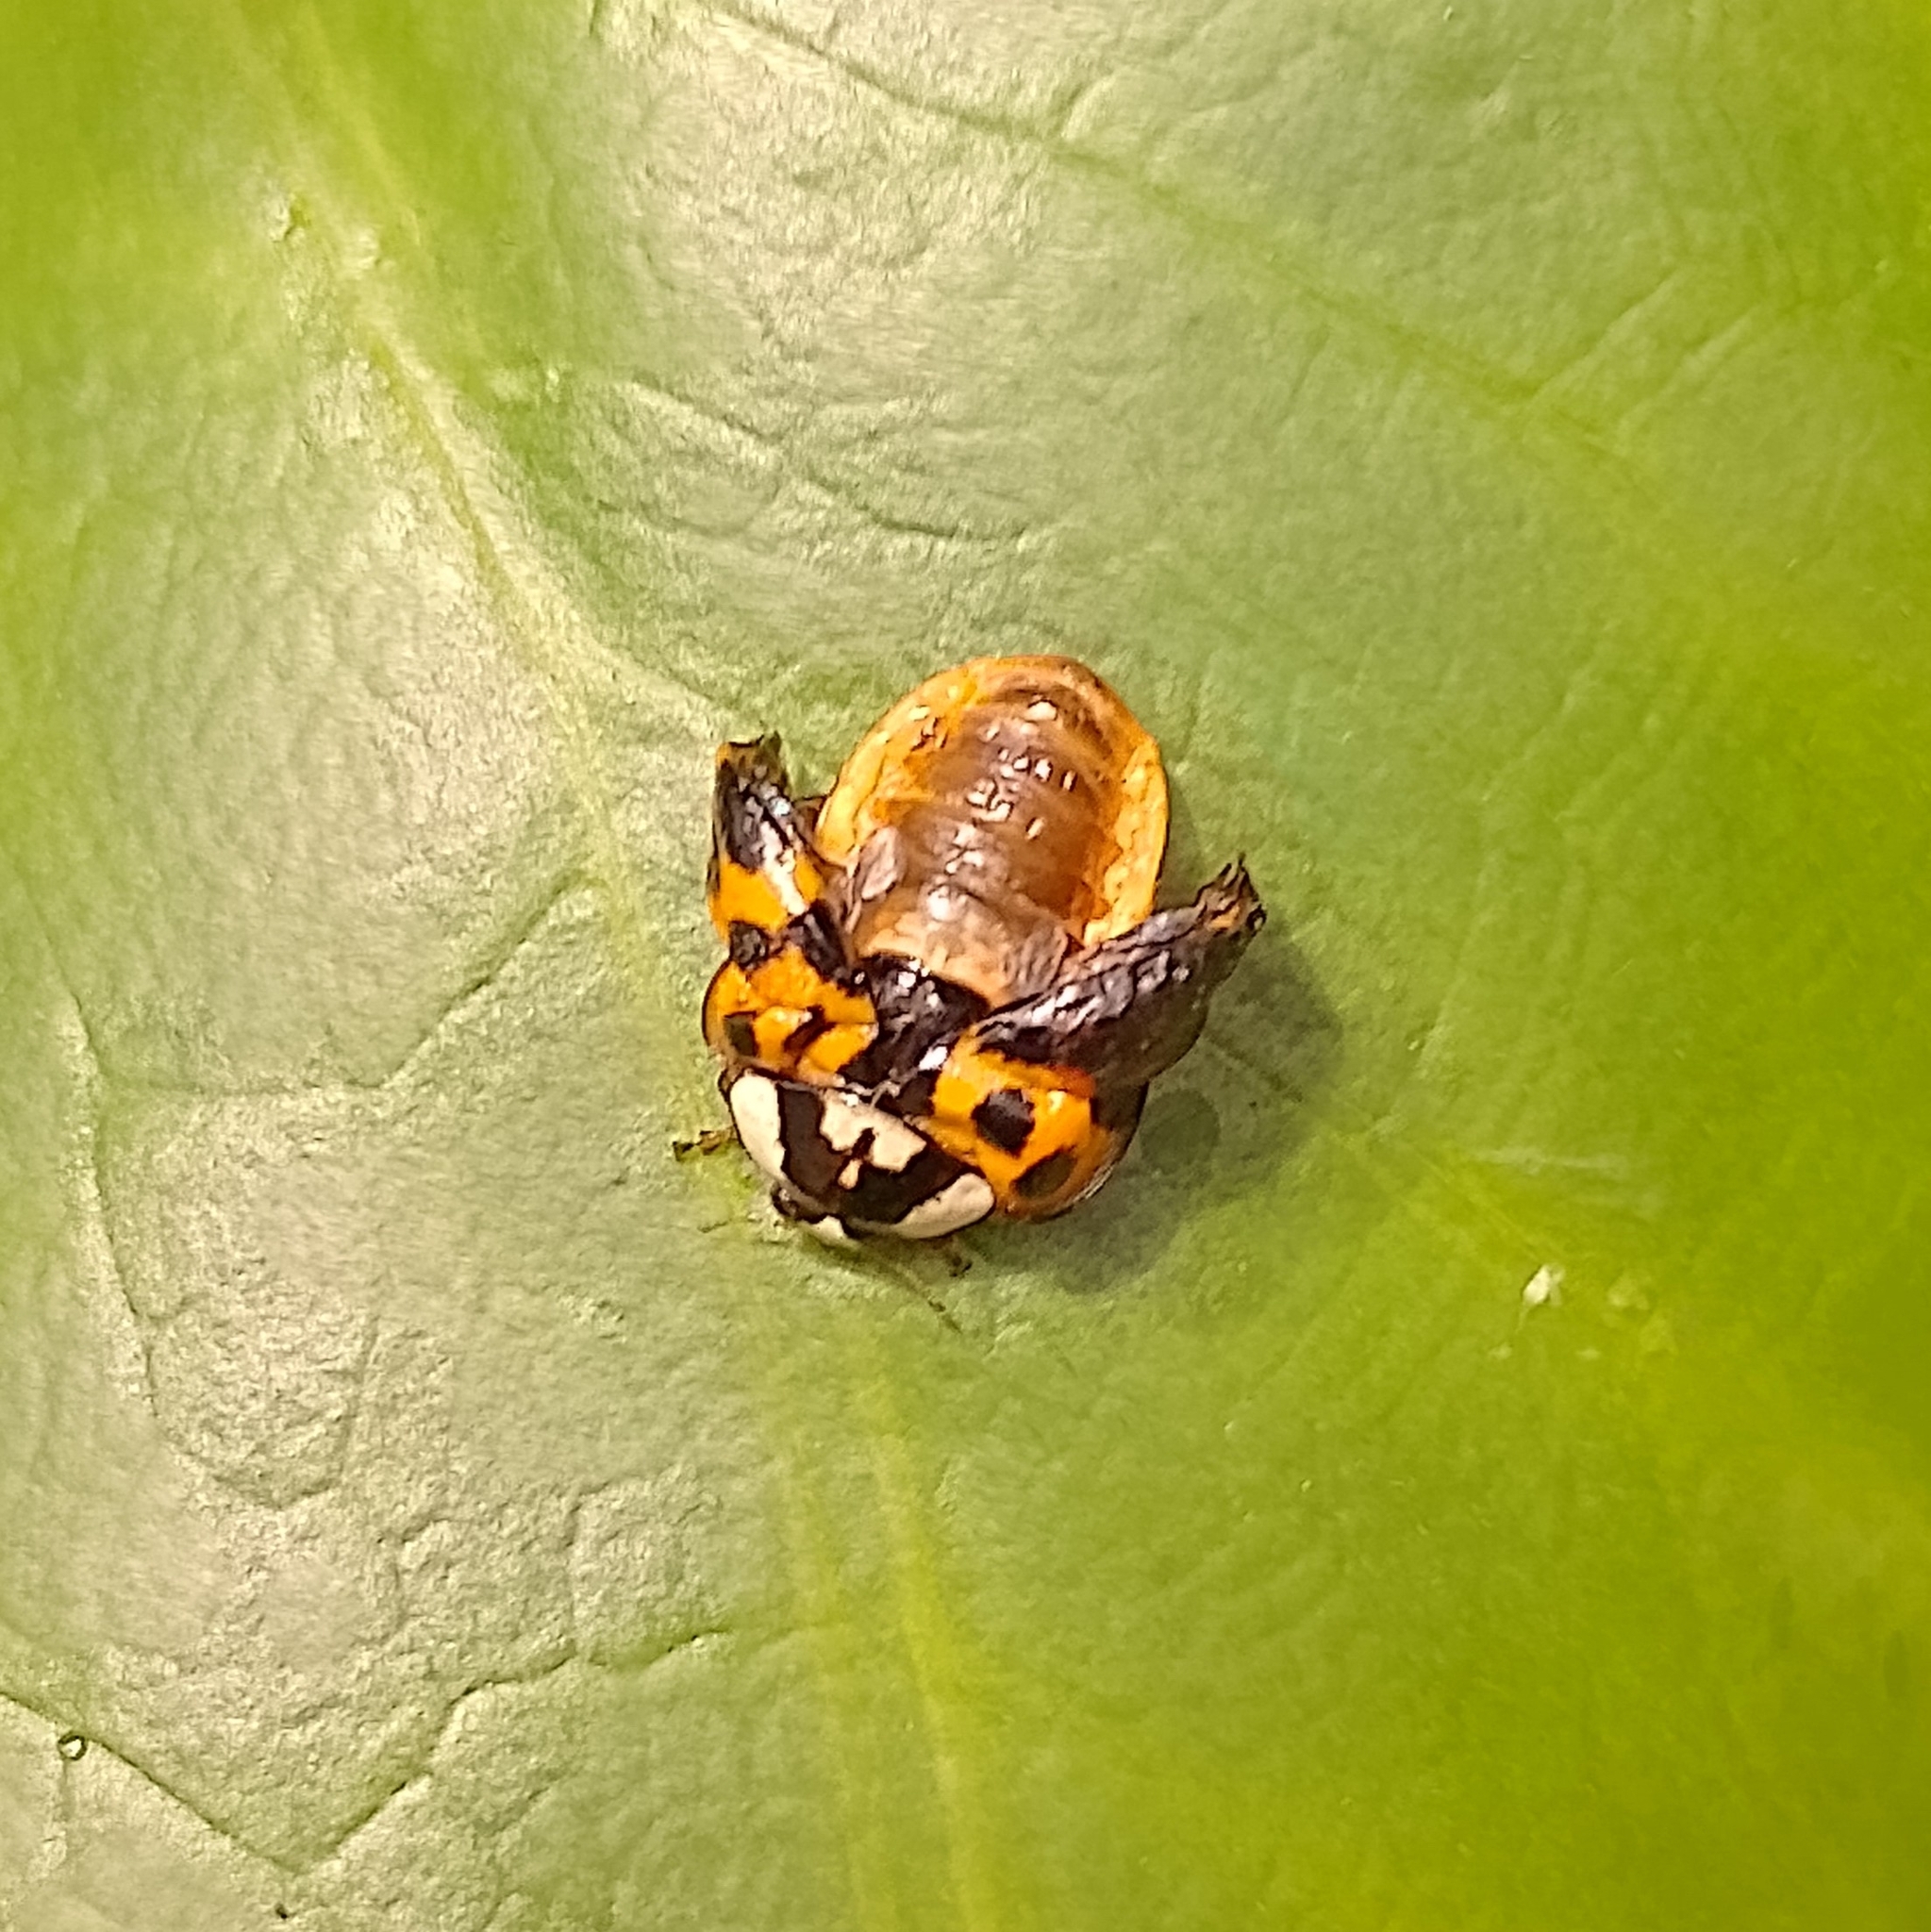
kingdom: Animalia
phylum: Arthropoda
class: Insecta
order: Coleoptera
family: Coccinellidae
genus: Harmonia
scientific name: Harmonia axyridis
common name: Harlequin ladybird
